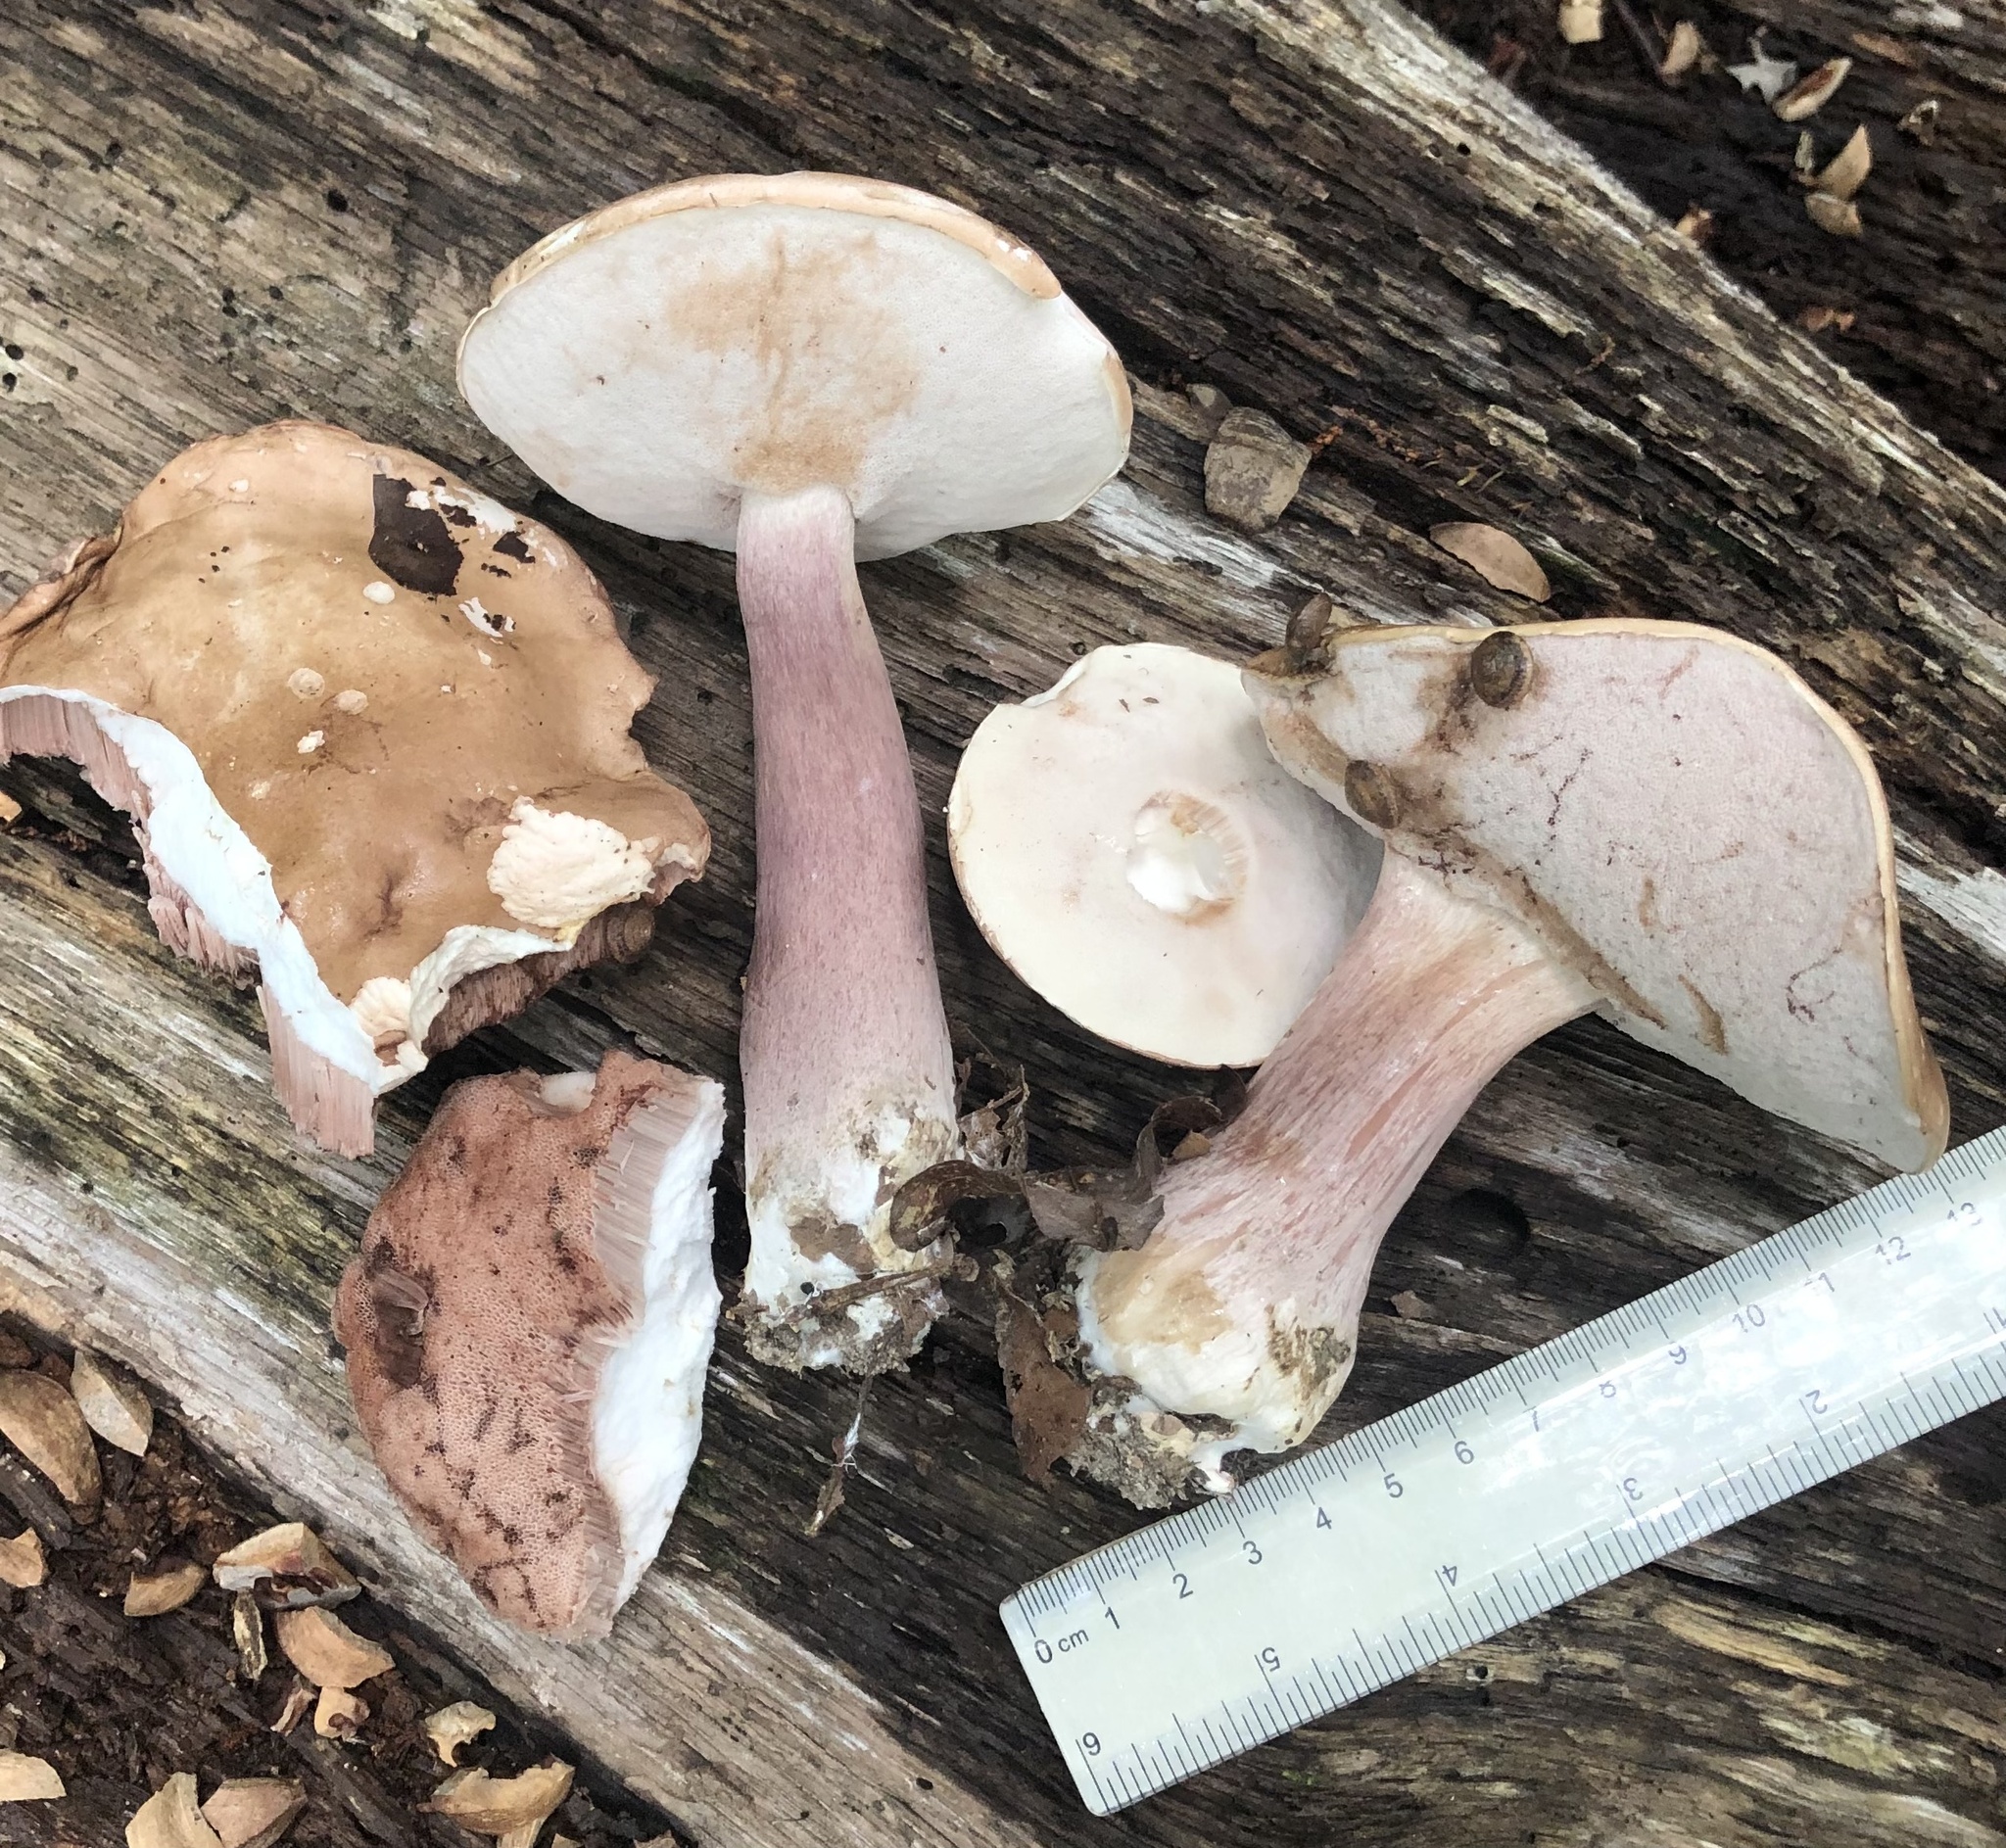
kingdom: Fungi
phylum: Basidiomycota
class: Agaricomycetes
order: Boletales
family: Boletaceae
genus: Xanthoconium
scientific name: Xanthoconium separans
